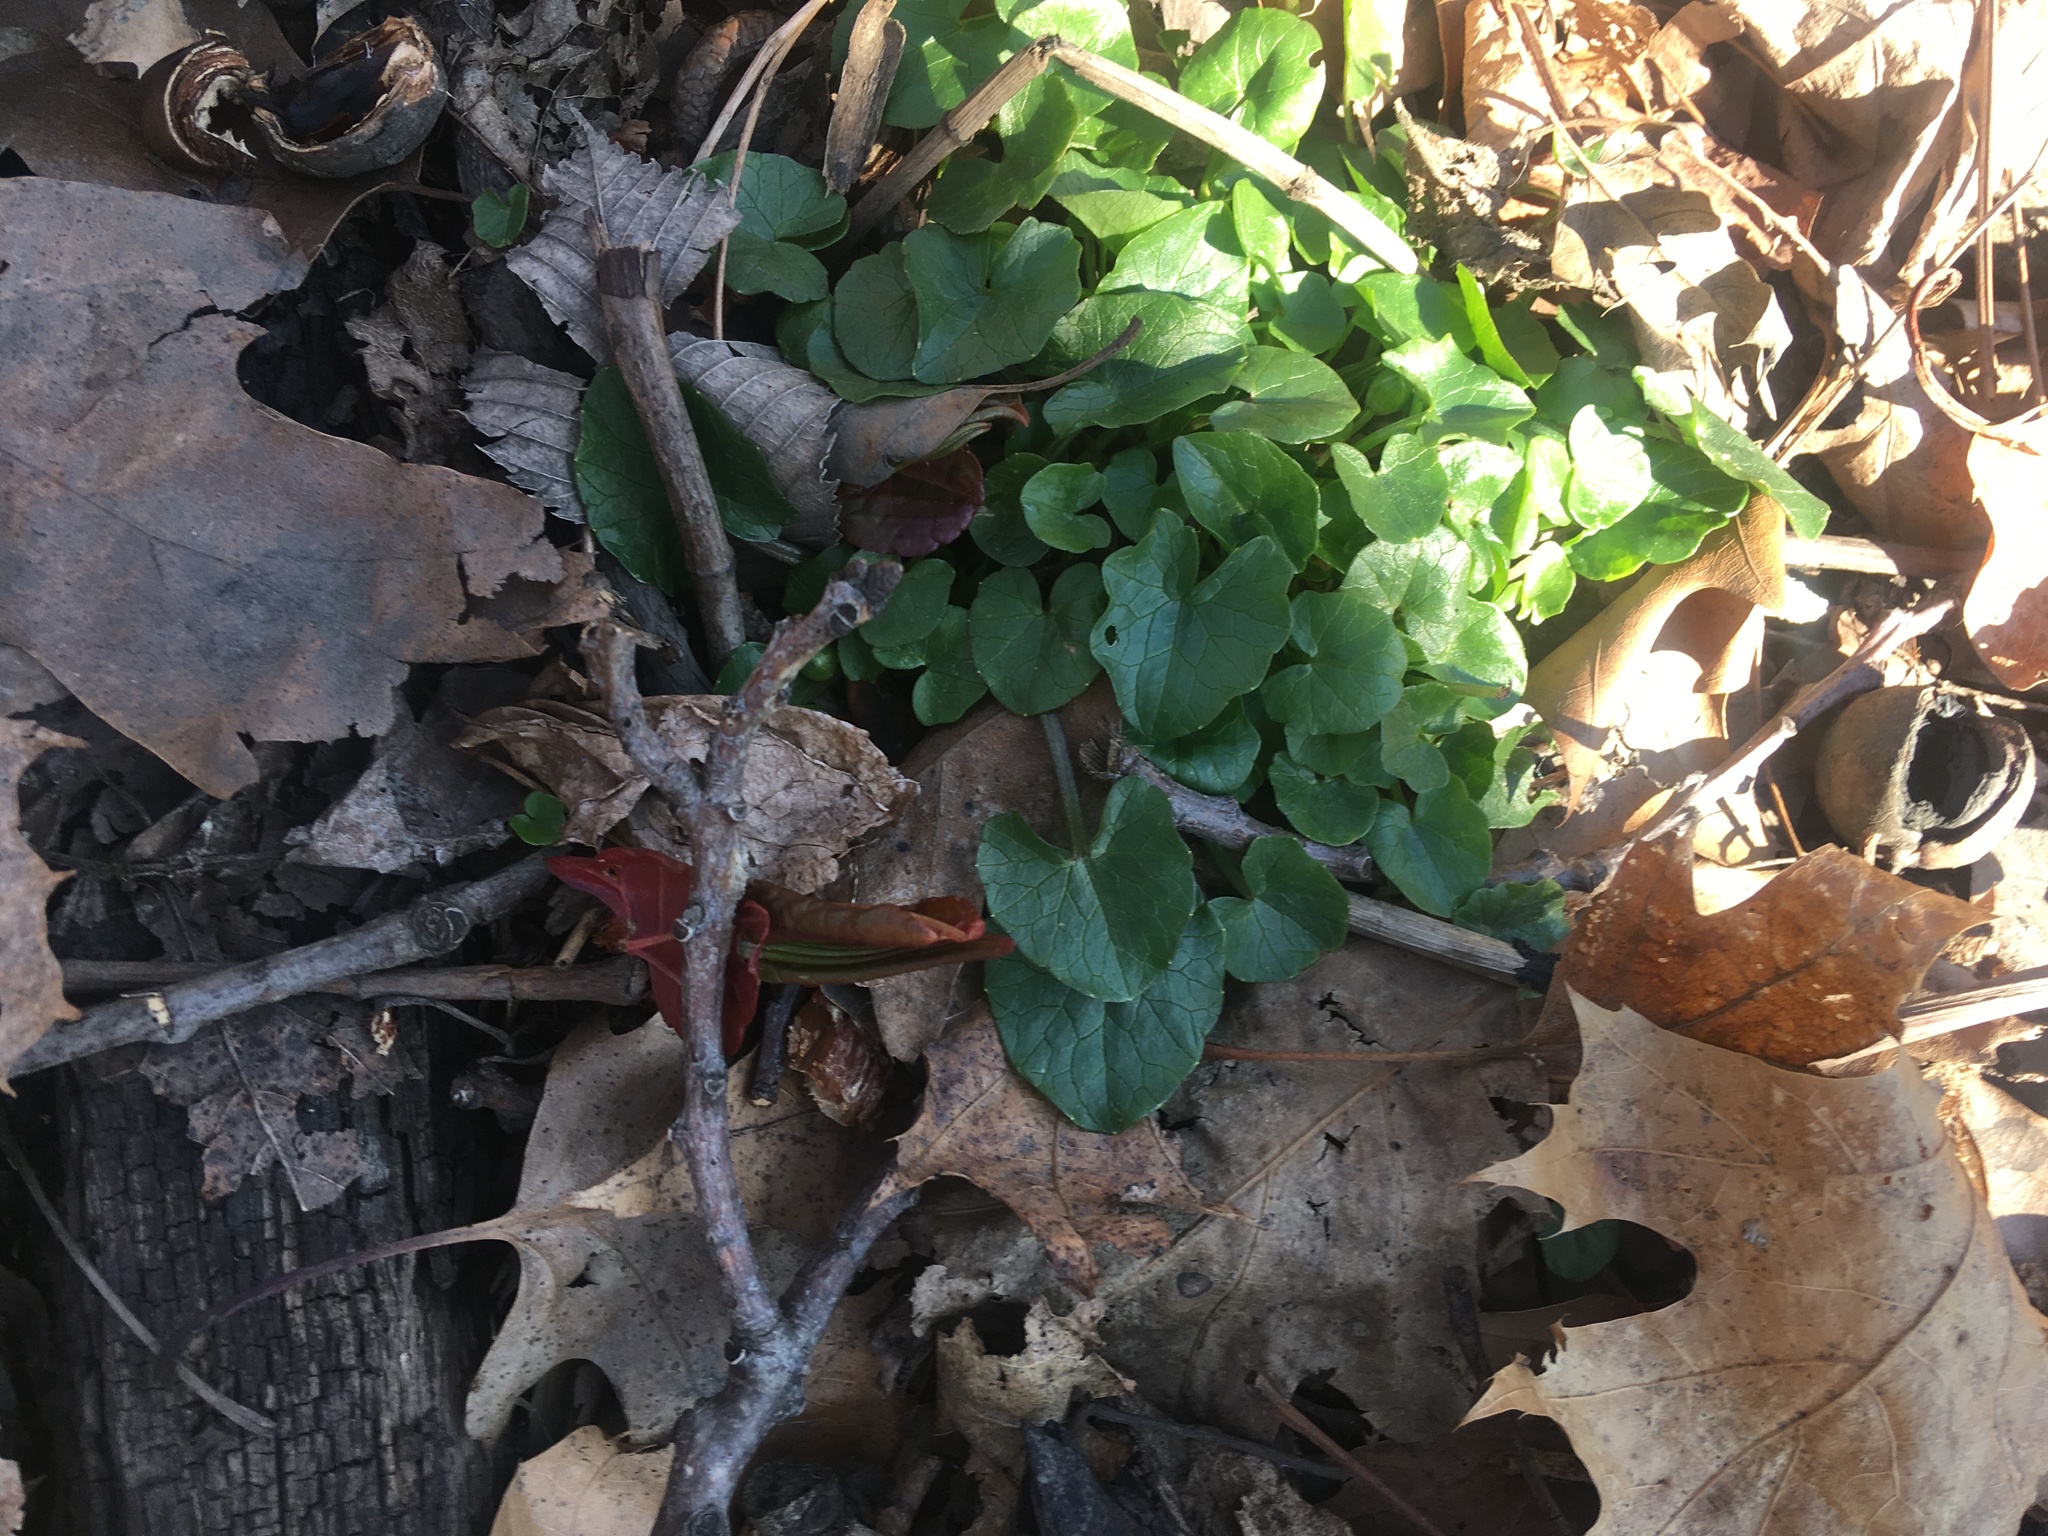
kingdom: Plantae
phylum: Tracheophyta
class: Magnoliopsida
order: Ranunculales
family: Ranunculaceae
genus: Ficaria
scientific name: Ficaria verna
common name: Lesser celandine
